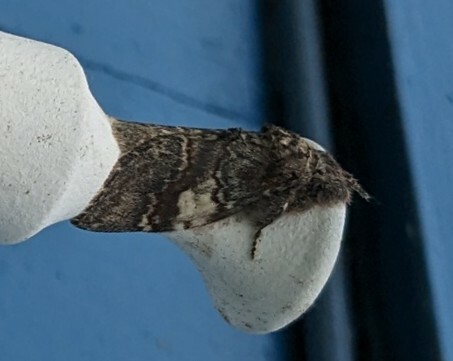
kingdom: Animalia
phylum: Arthropoda
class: Insecta
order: Lepidoptera
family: Notodontidae
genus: Peridea
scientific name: Peridea ferruginea
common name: Chocolate prominent
